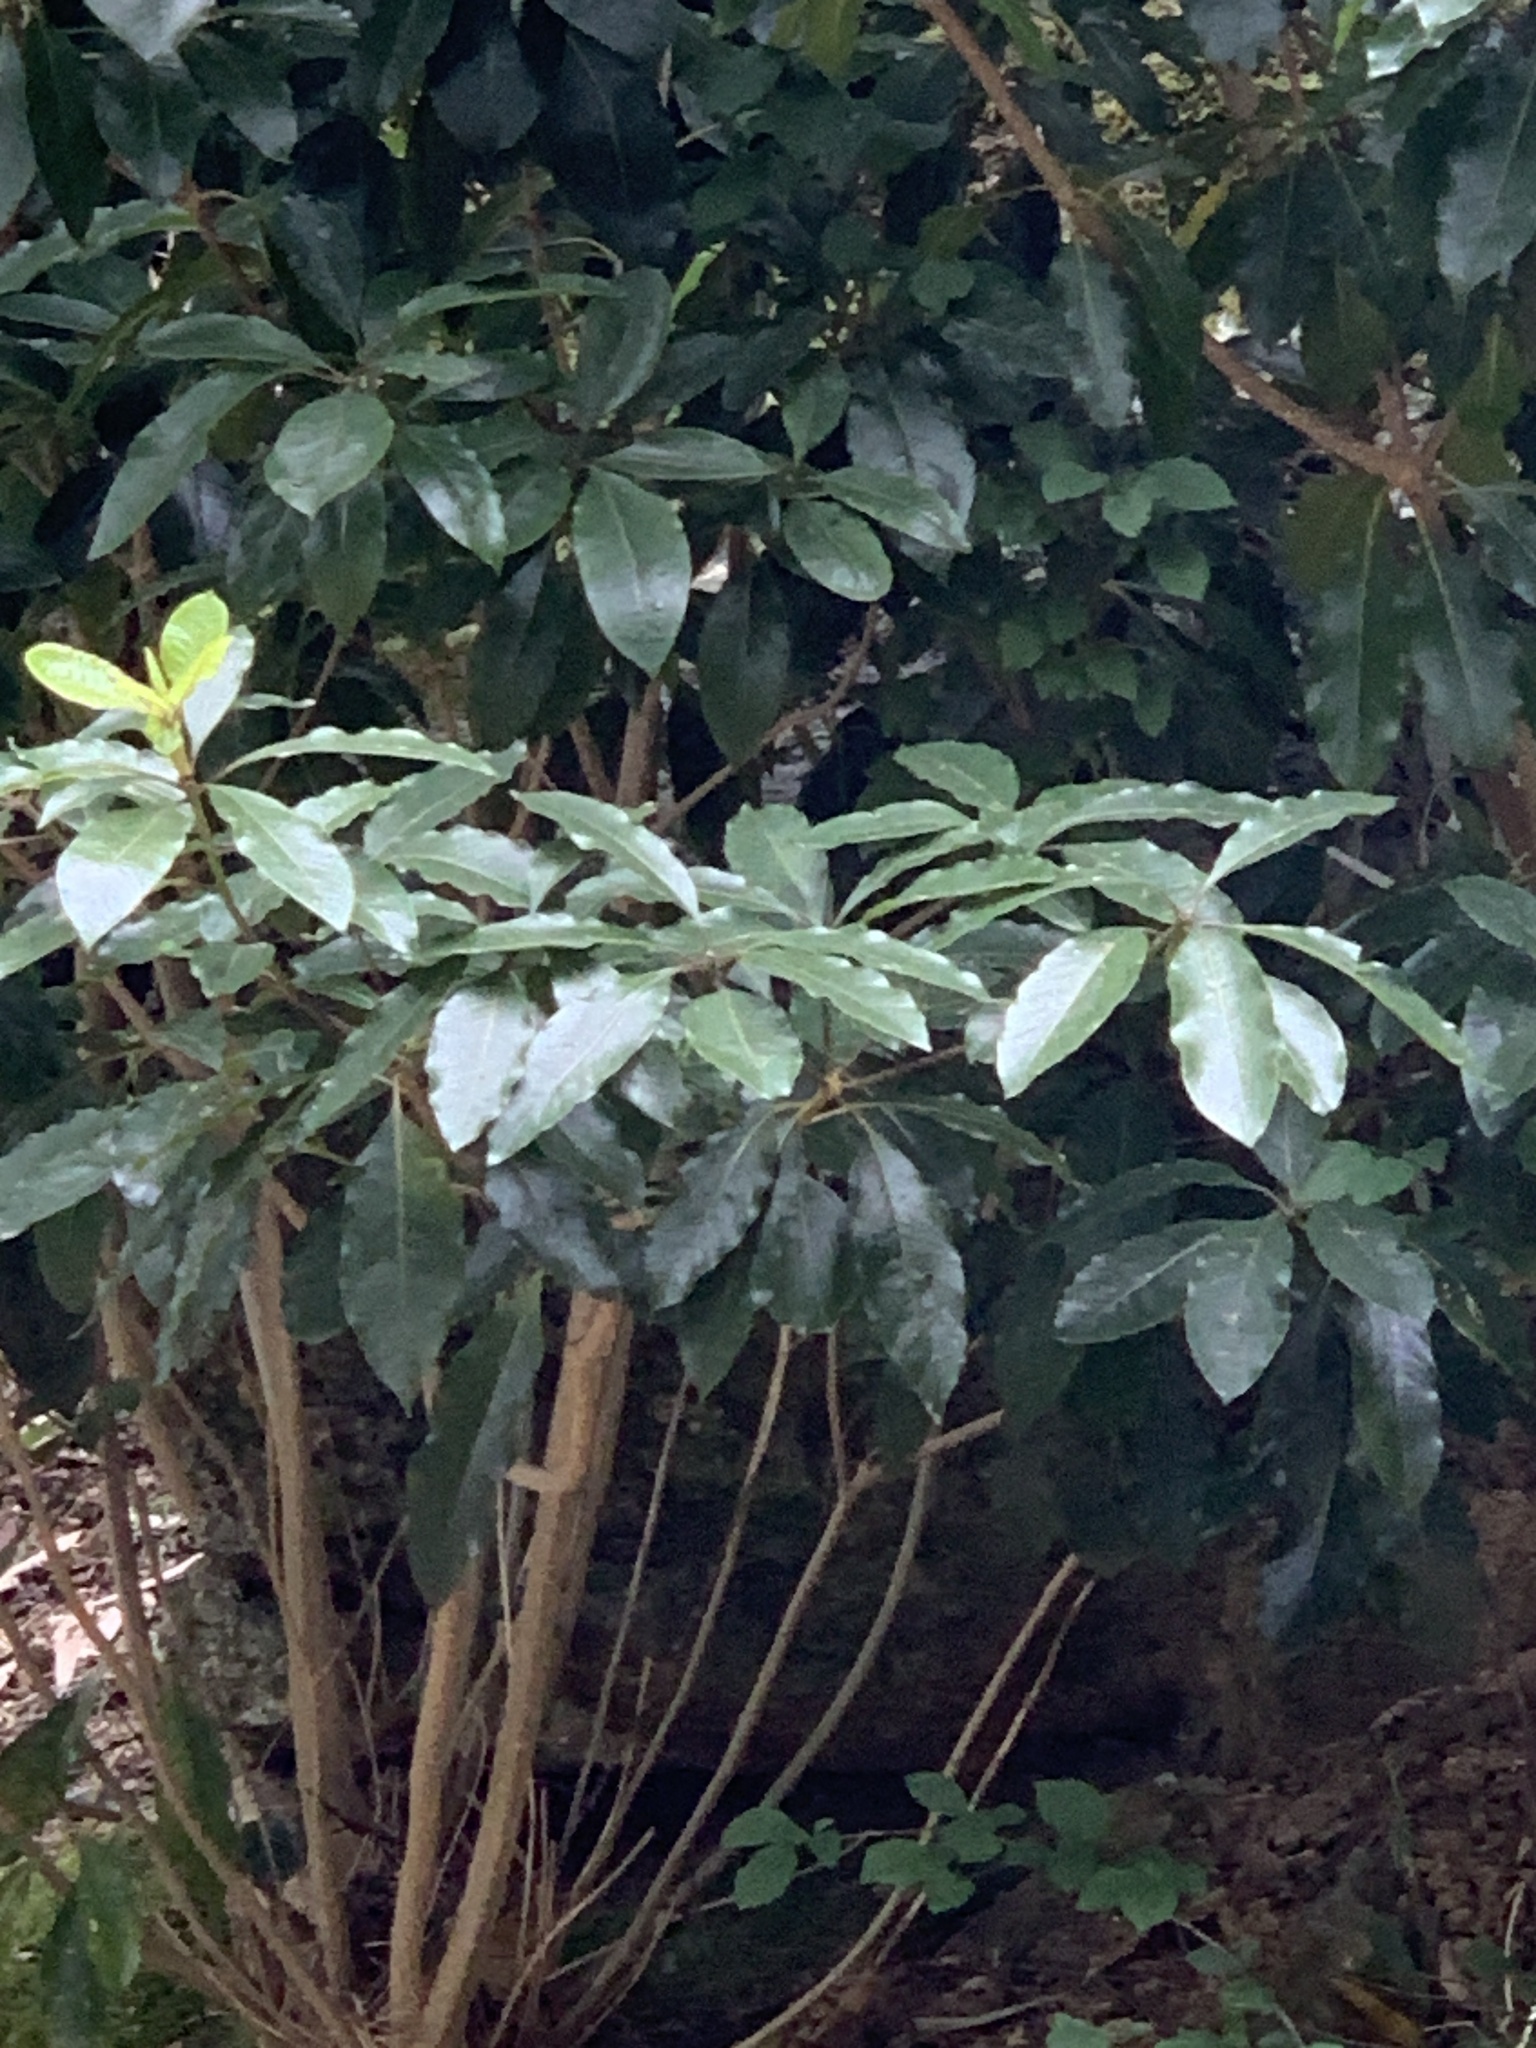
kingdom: Plantae
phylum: Tracheophyta
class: Magnoliopsida
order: Apiales
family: Pittosporaceae
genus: Pittosporum
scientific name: Pittosporum undulatum
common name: Australian cheesewood
